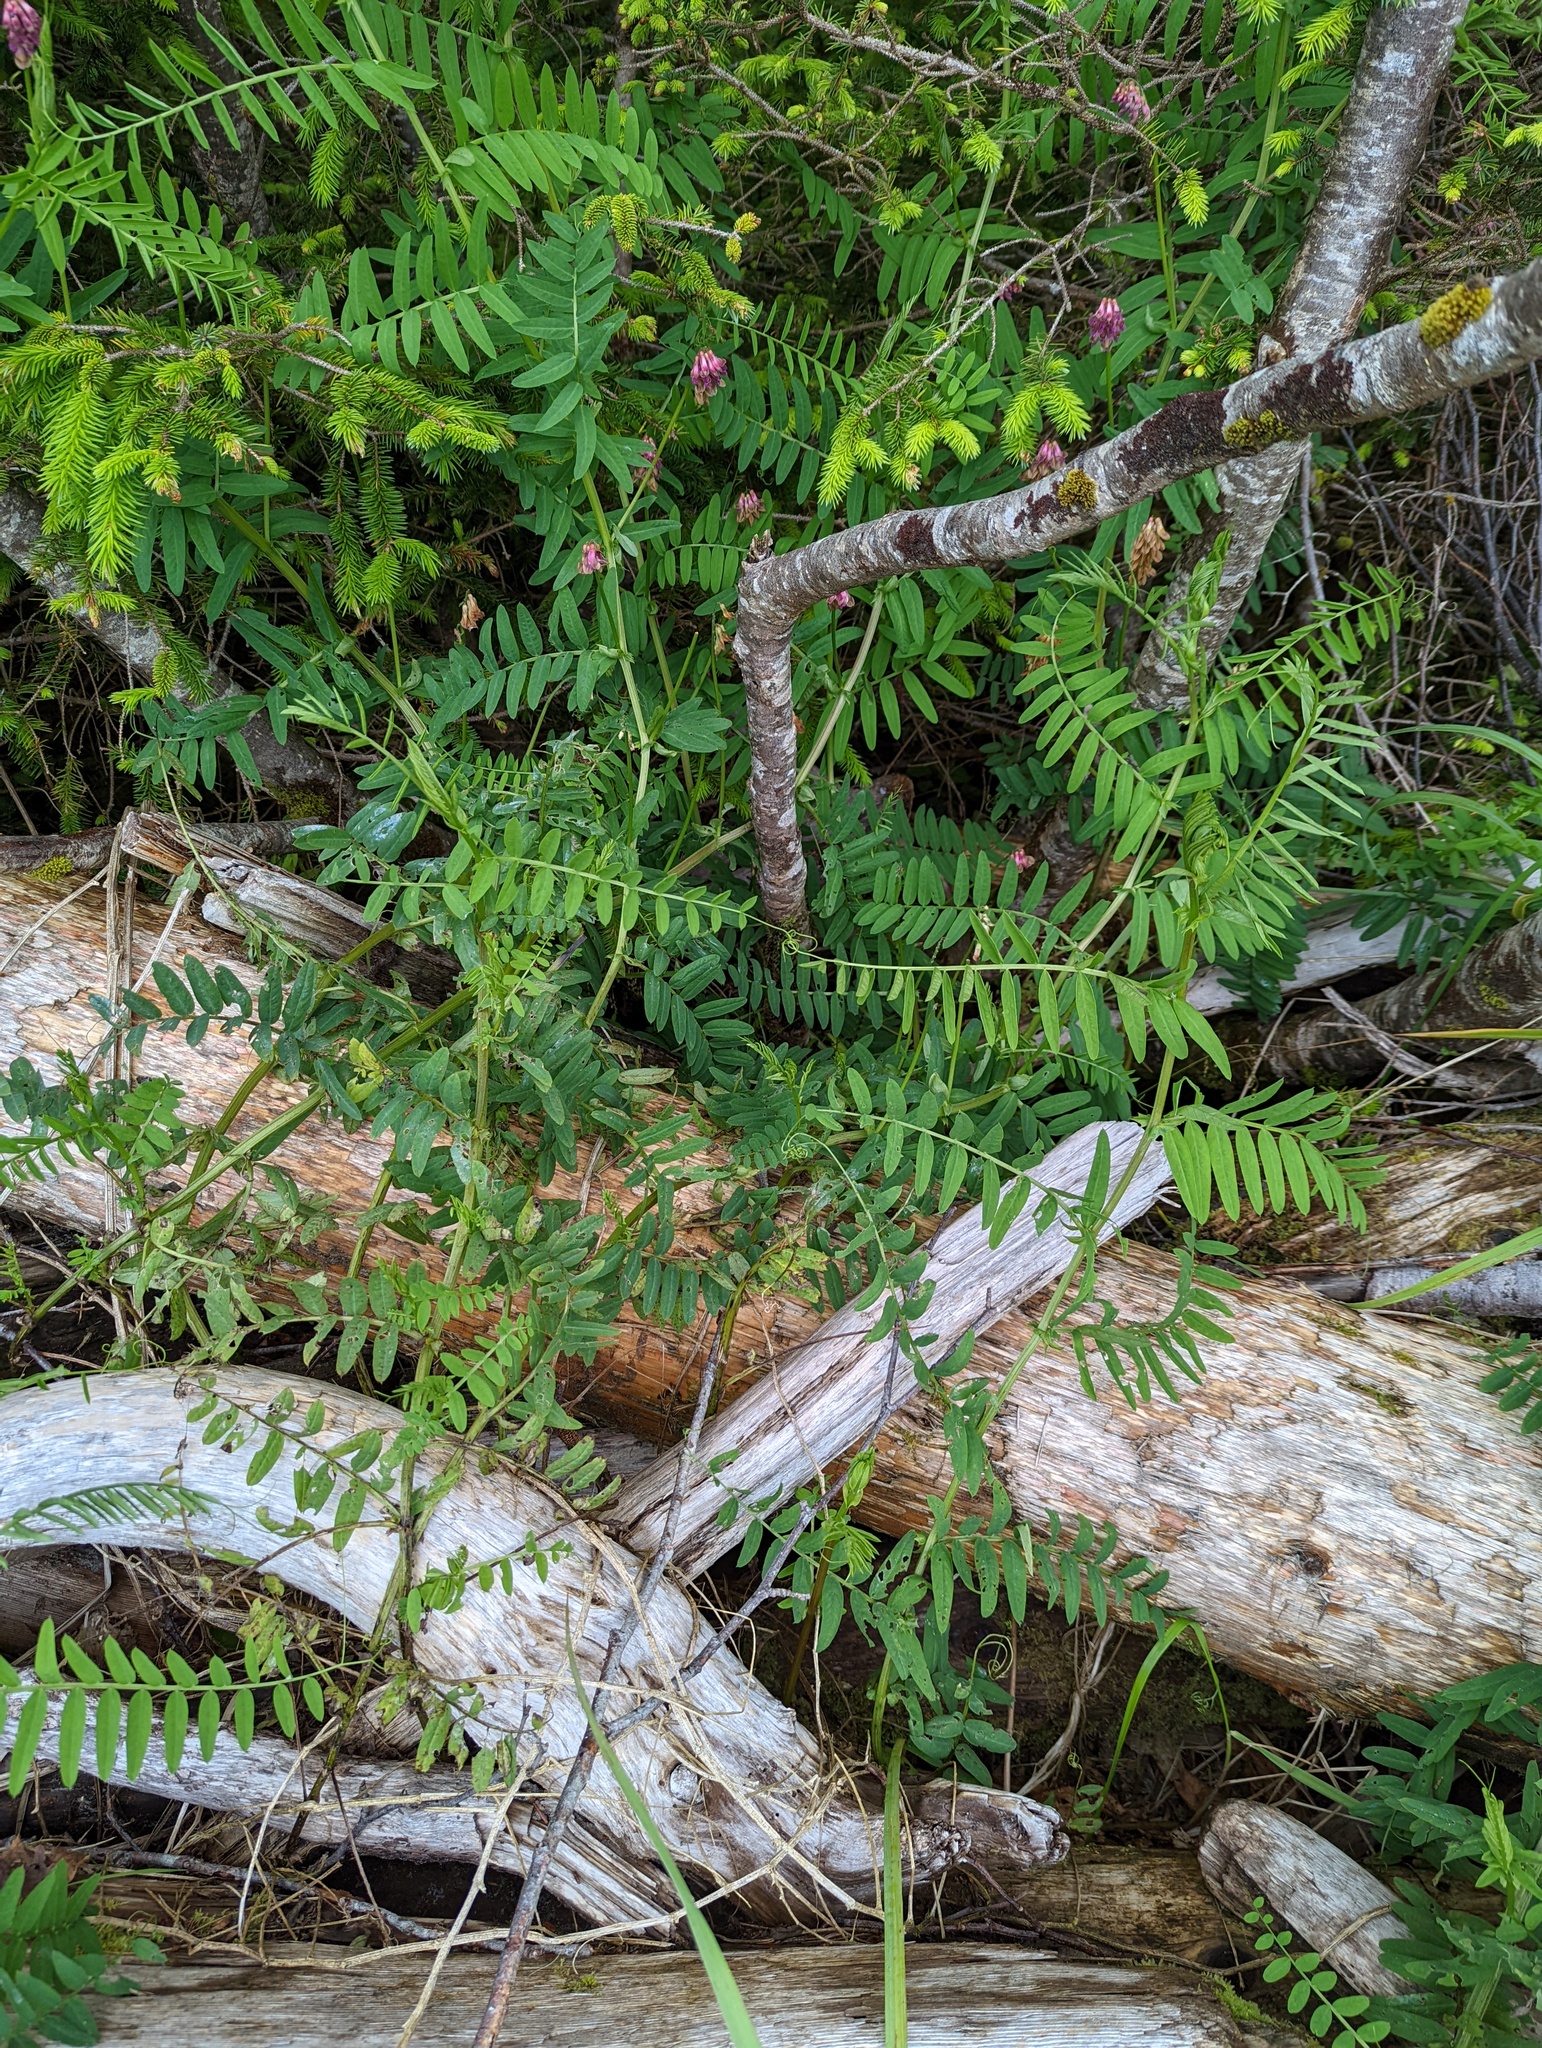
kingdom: Plantae
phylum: Tracheophyta
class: Magnoliopsida
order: Fabales
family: Fabaceae
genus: Vicia
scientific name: Vicia
